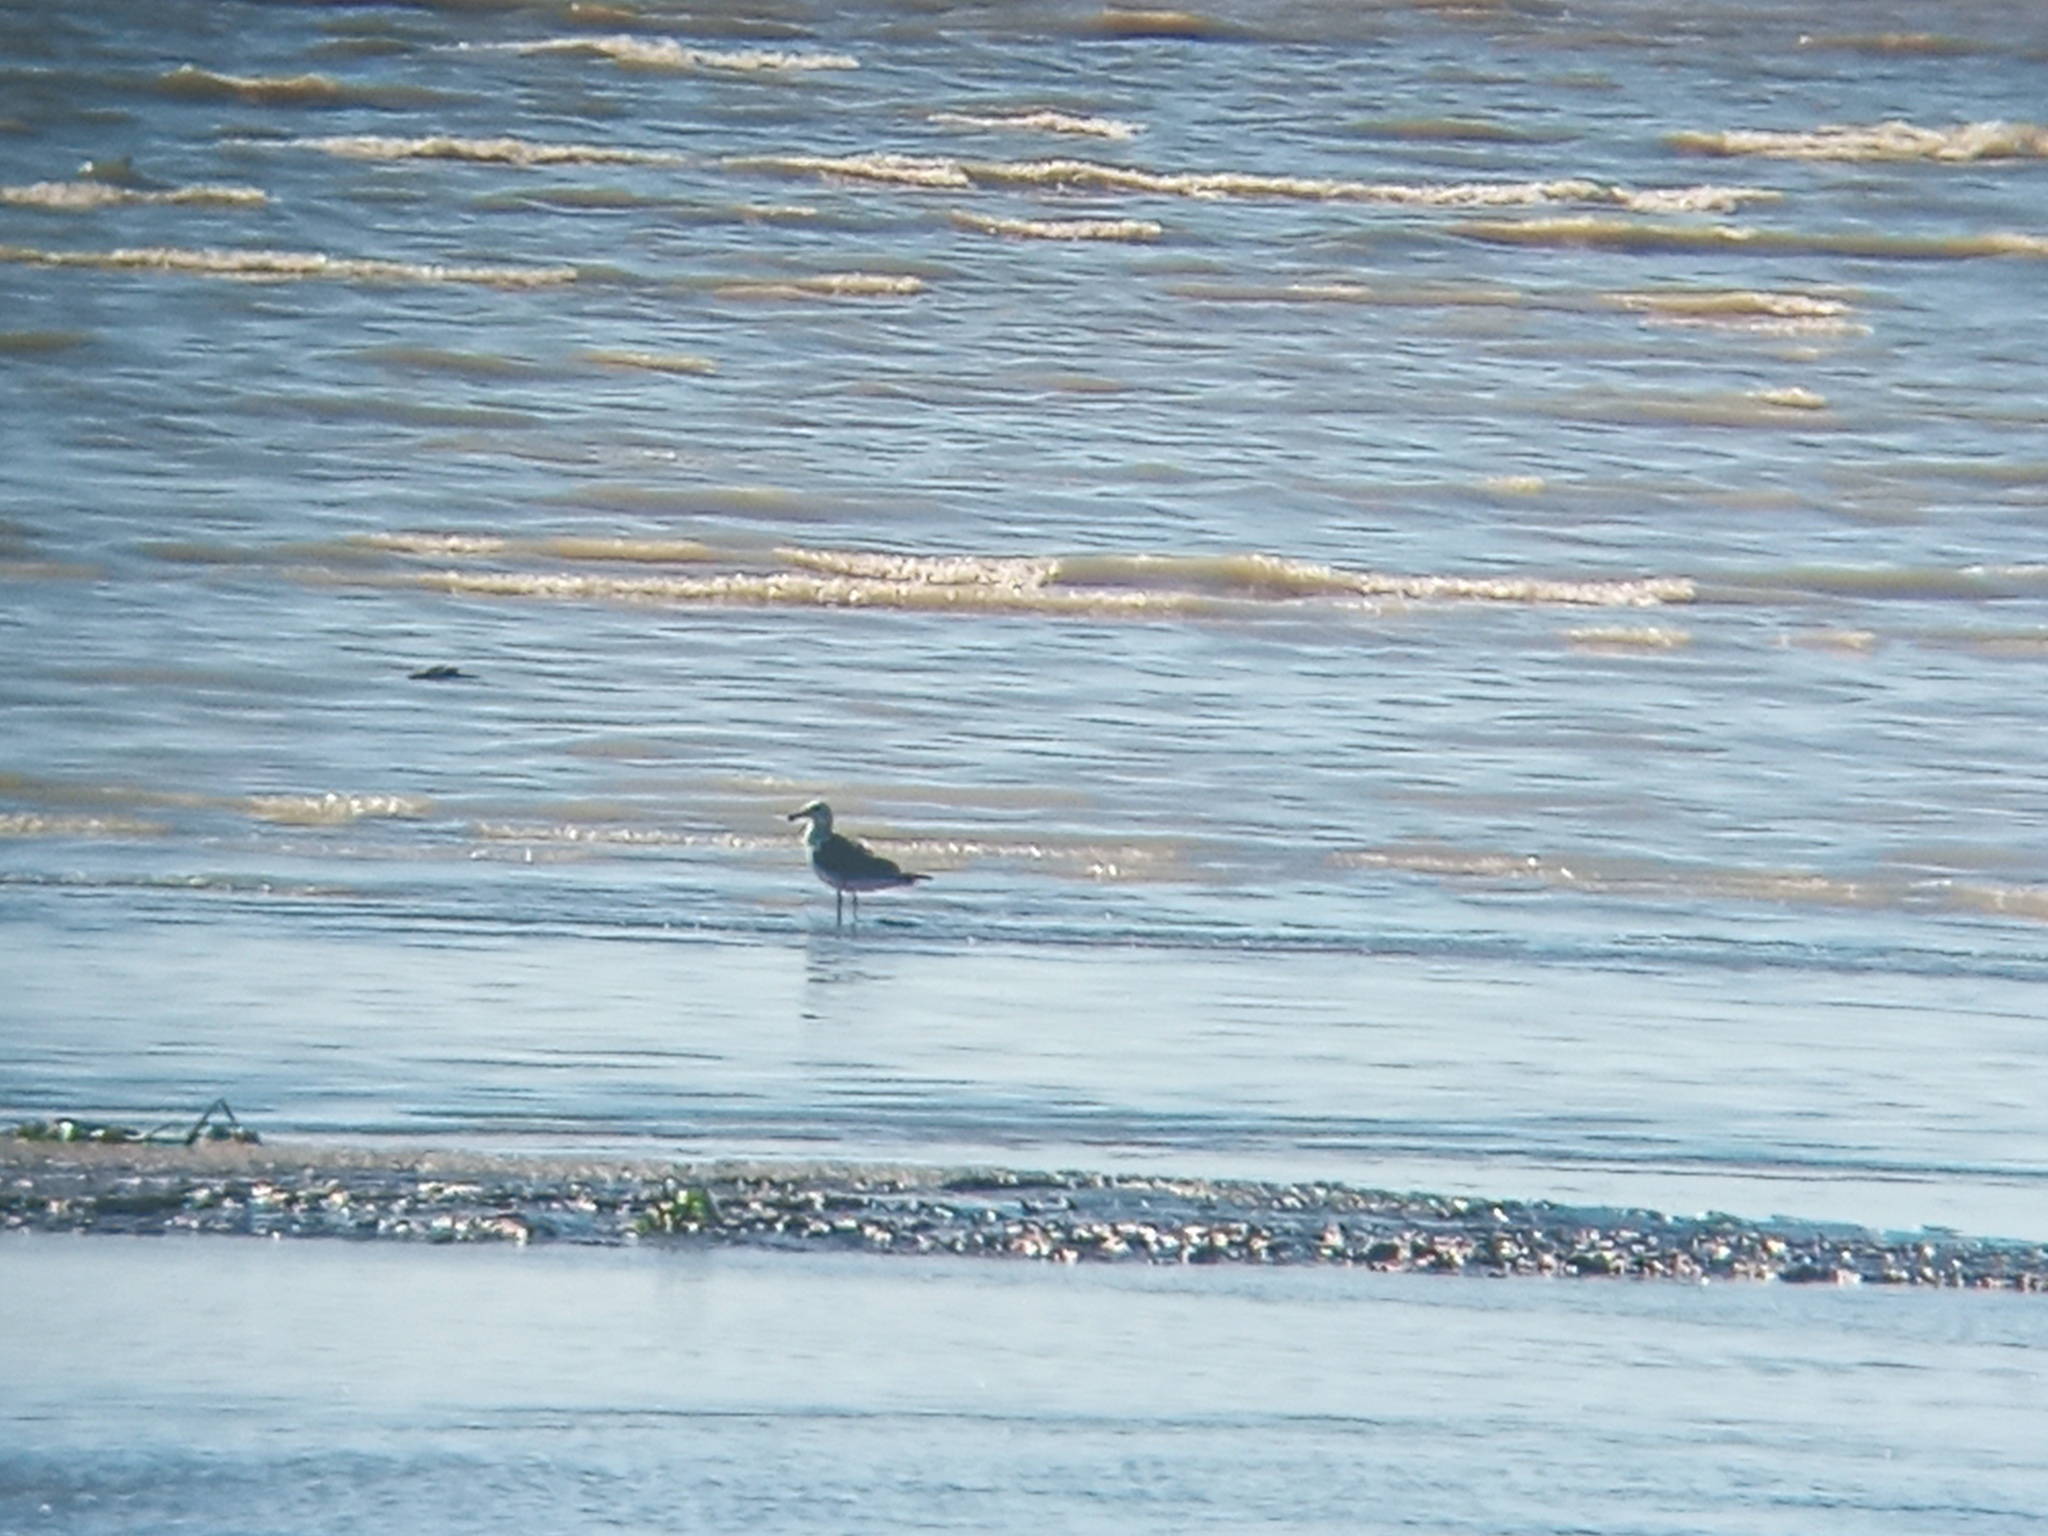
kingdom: Animalia
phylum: Chordata
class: Aves
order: Charadriiformes
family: Laridae
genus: Larus
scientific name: Larus dominicanus
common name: Kelp gull
